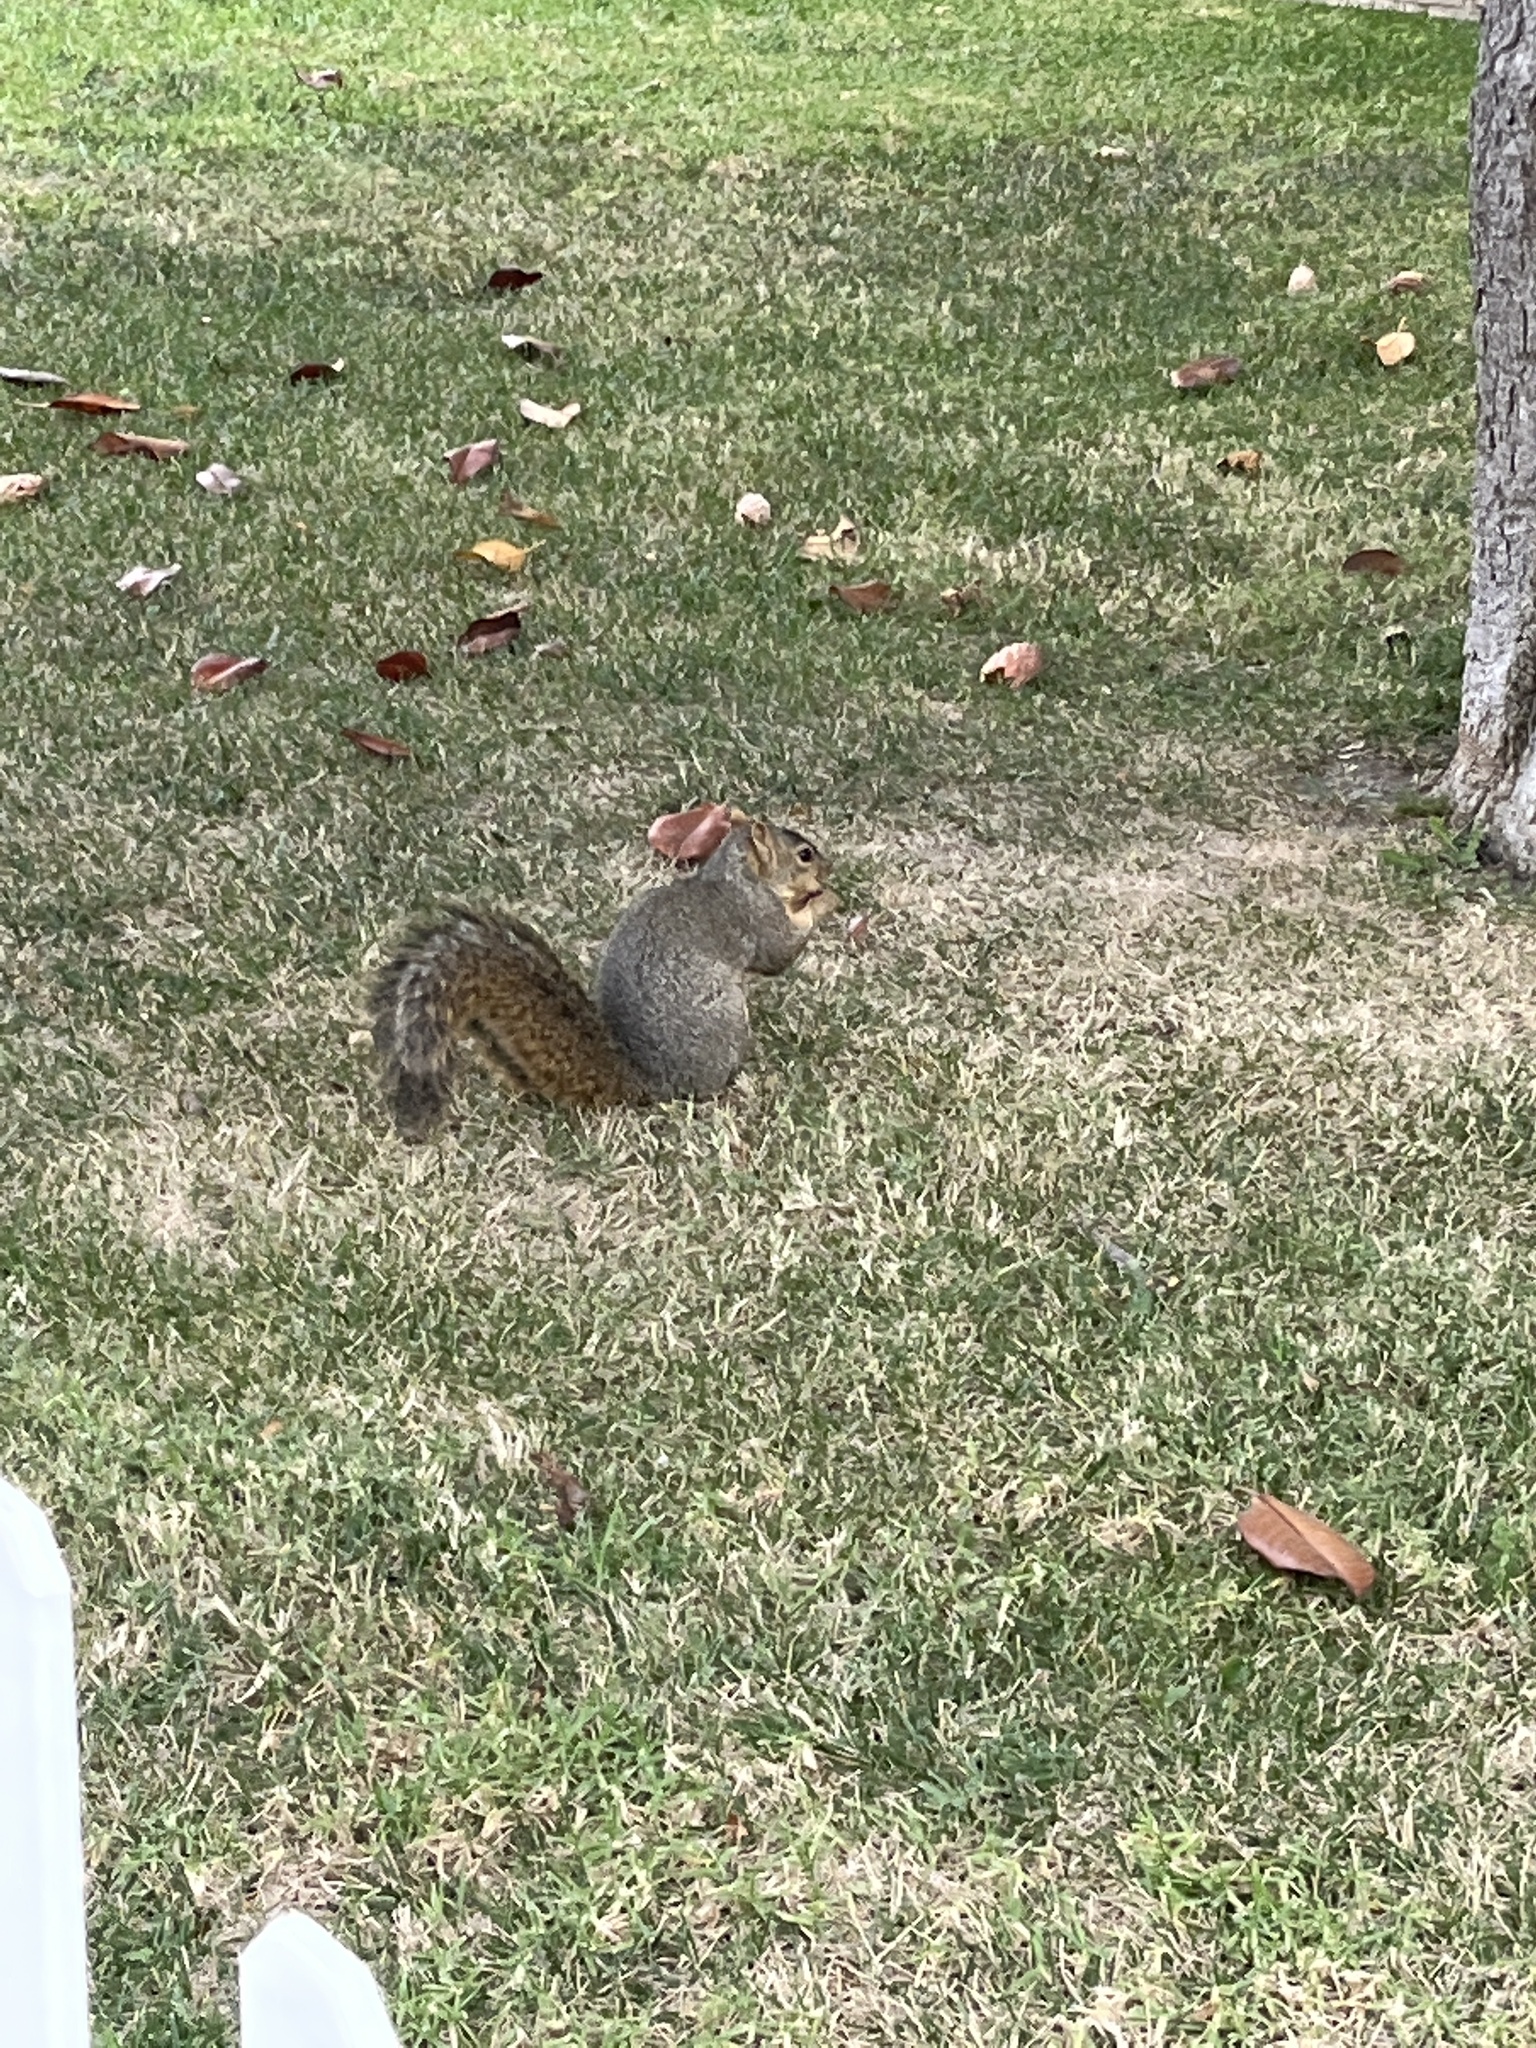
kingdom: Animalia
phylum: Chordata
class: Mammalia
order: Rodentia
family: Sciuridae
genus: Sciurus
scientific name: Sciurus niger
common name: Fox squirrel
